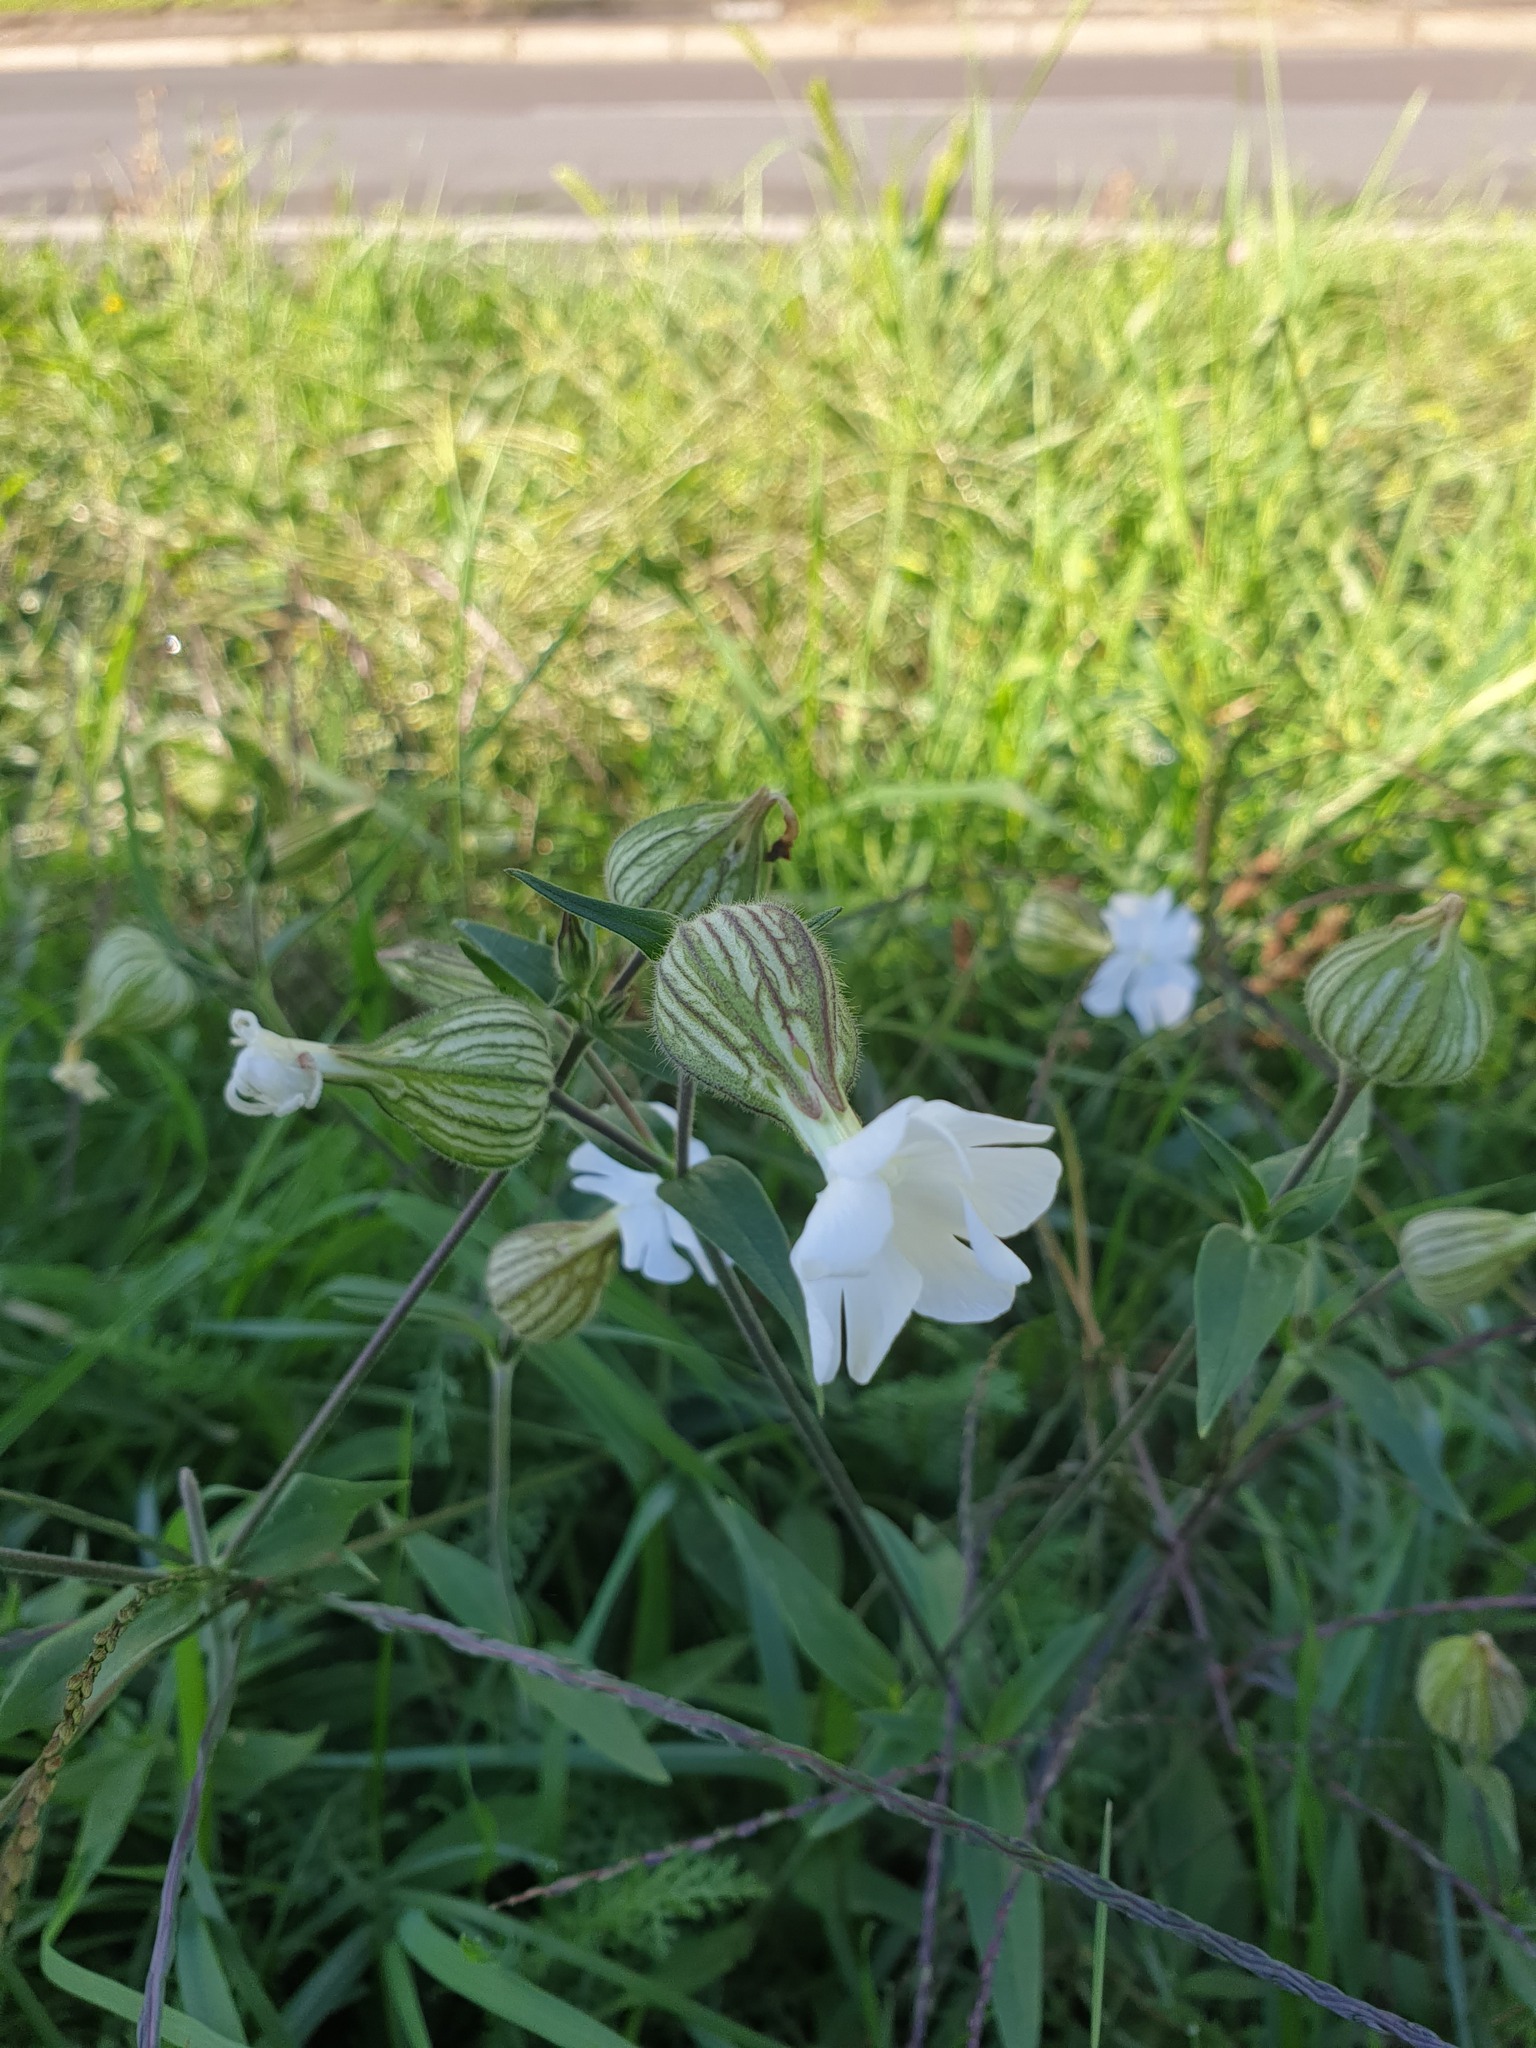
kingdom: Plantae
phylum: Tracheophyta
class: Magnoliopsida
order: Caryophyllales
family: Caryophyllaceae
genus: Silene
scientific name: Silene latifolia
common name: White campion
